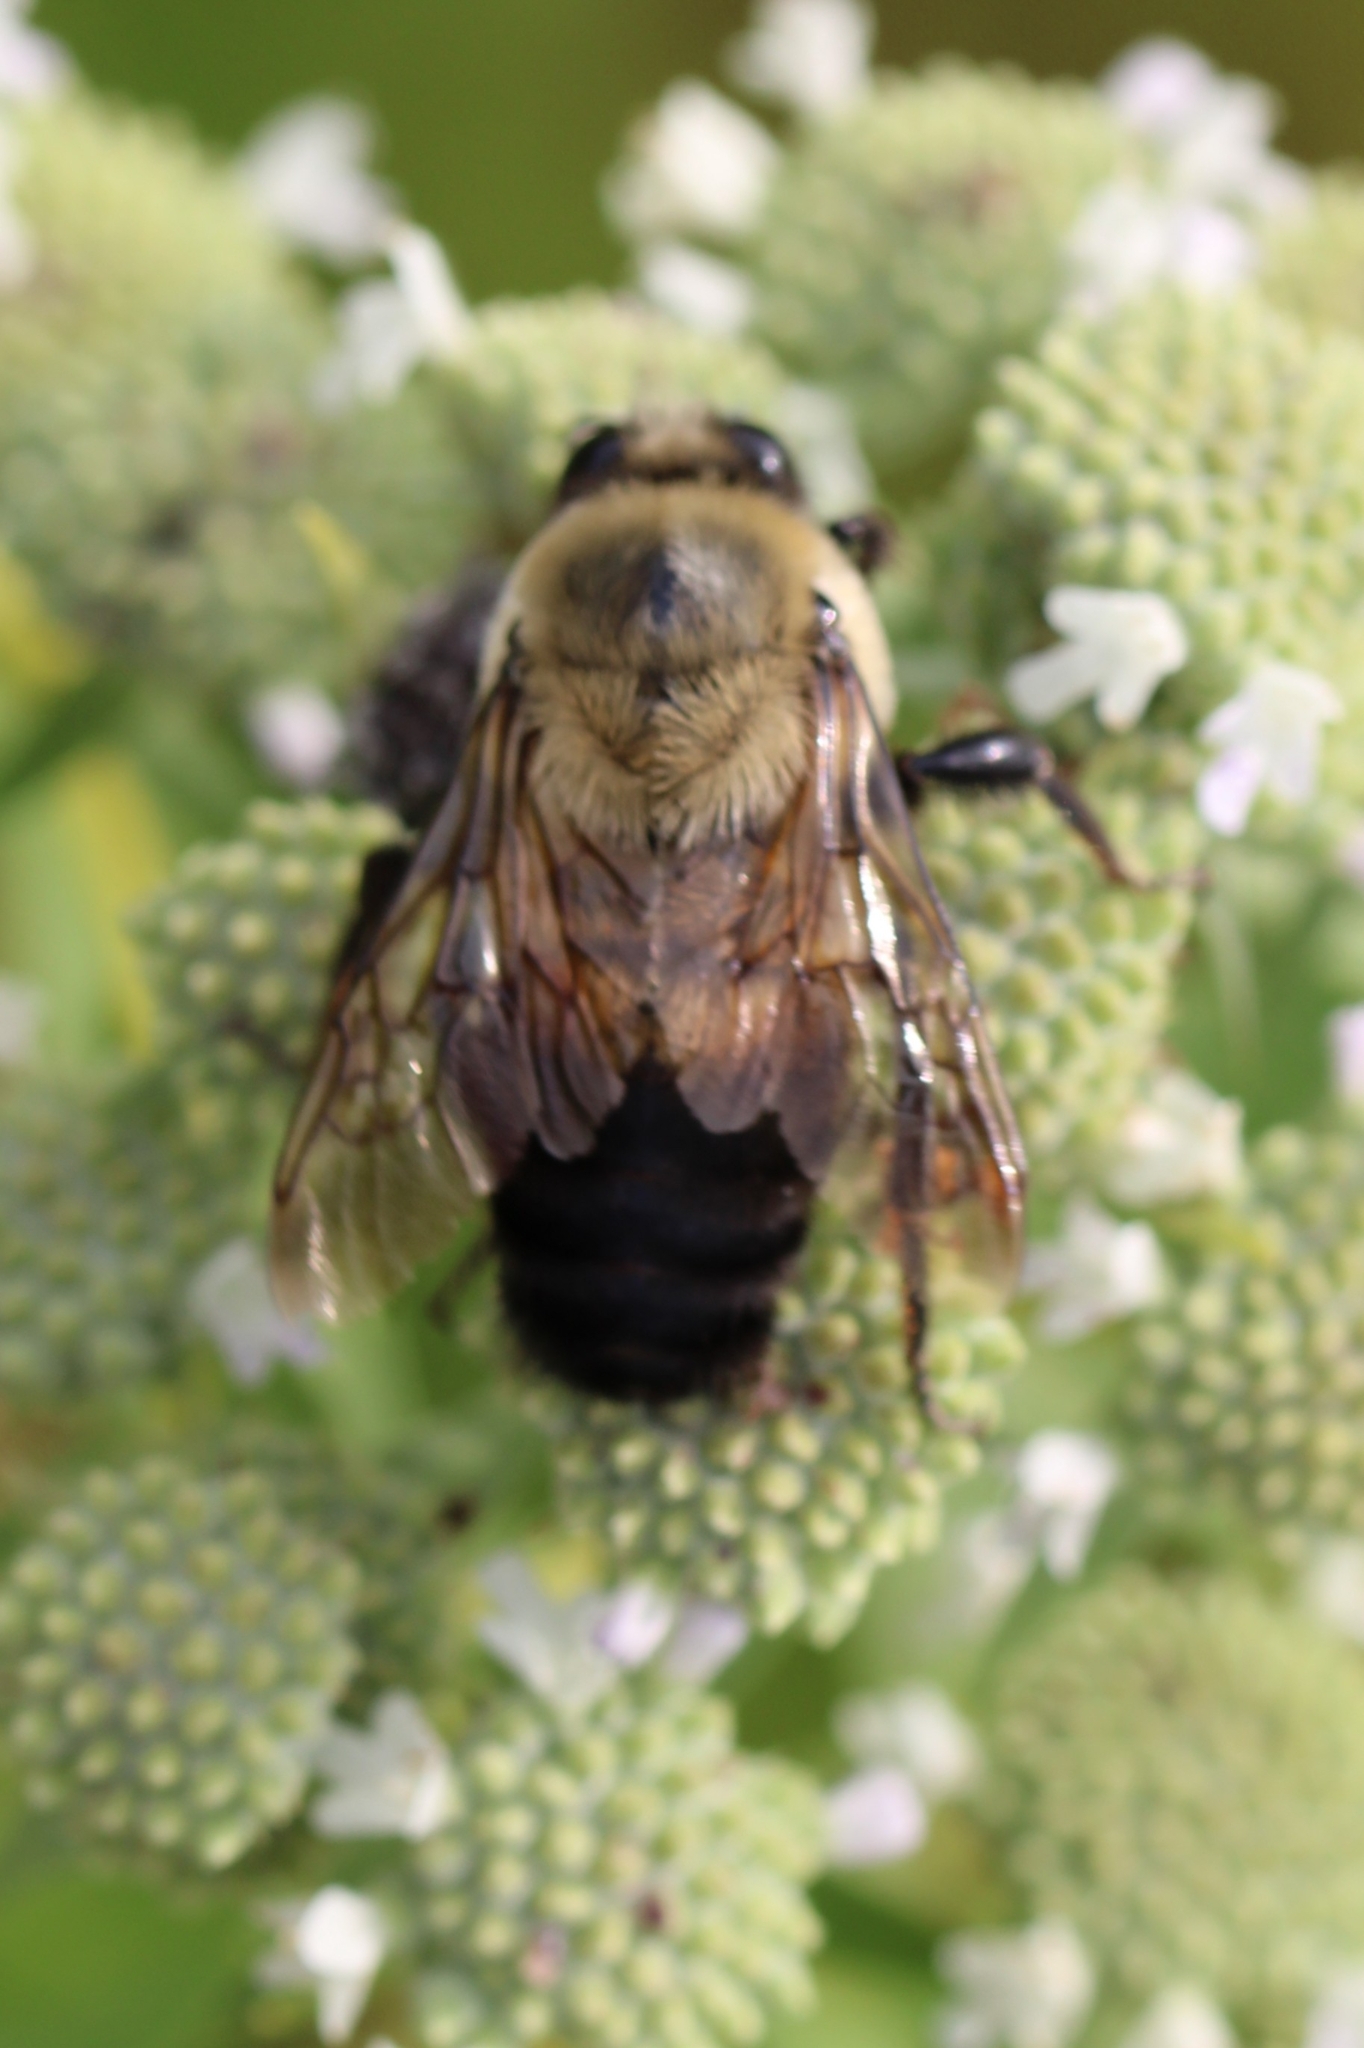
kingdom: Animalia
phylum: Arthropoda
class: Insecta
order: Hymenoptera
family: Apidae
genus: Bombus
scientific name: Bombus griseocollis
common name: Brown-belted bumble bee
